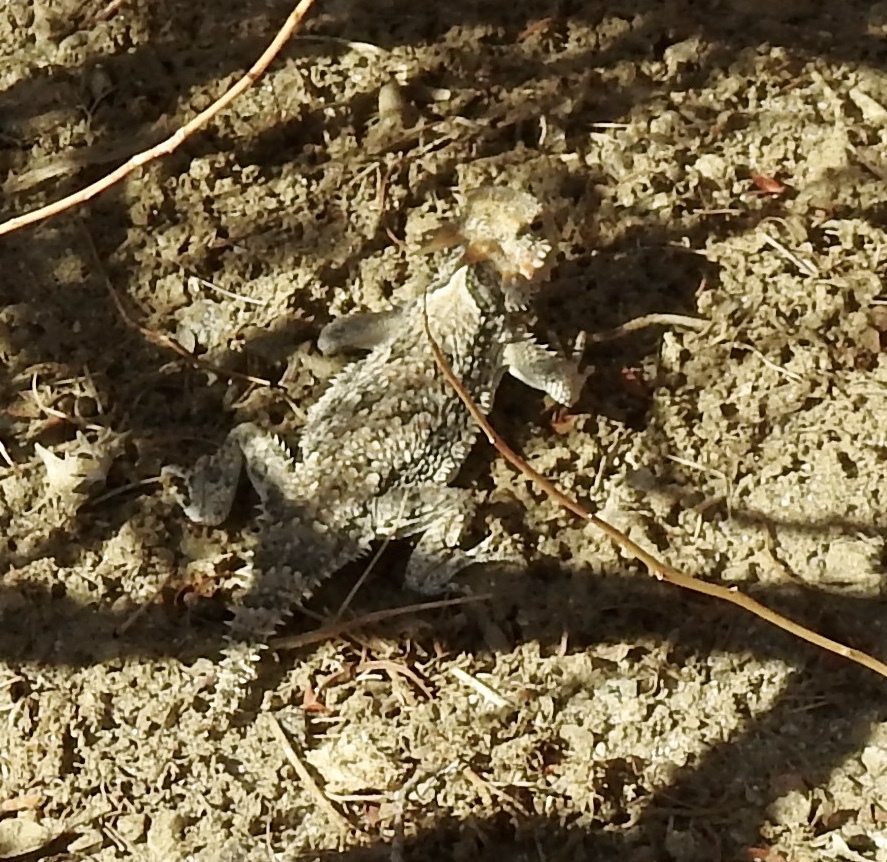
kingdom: Animalia
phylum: Chordata
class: Squamata
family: Phrynosomatidae
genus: Phrynosoma
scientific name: Phrynosoma platyrhinos
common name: Desert horned lizard
